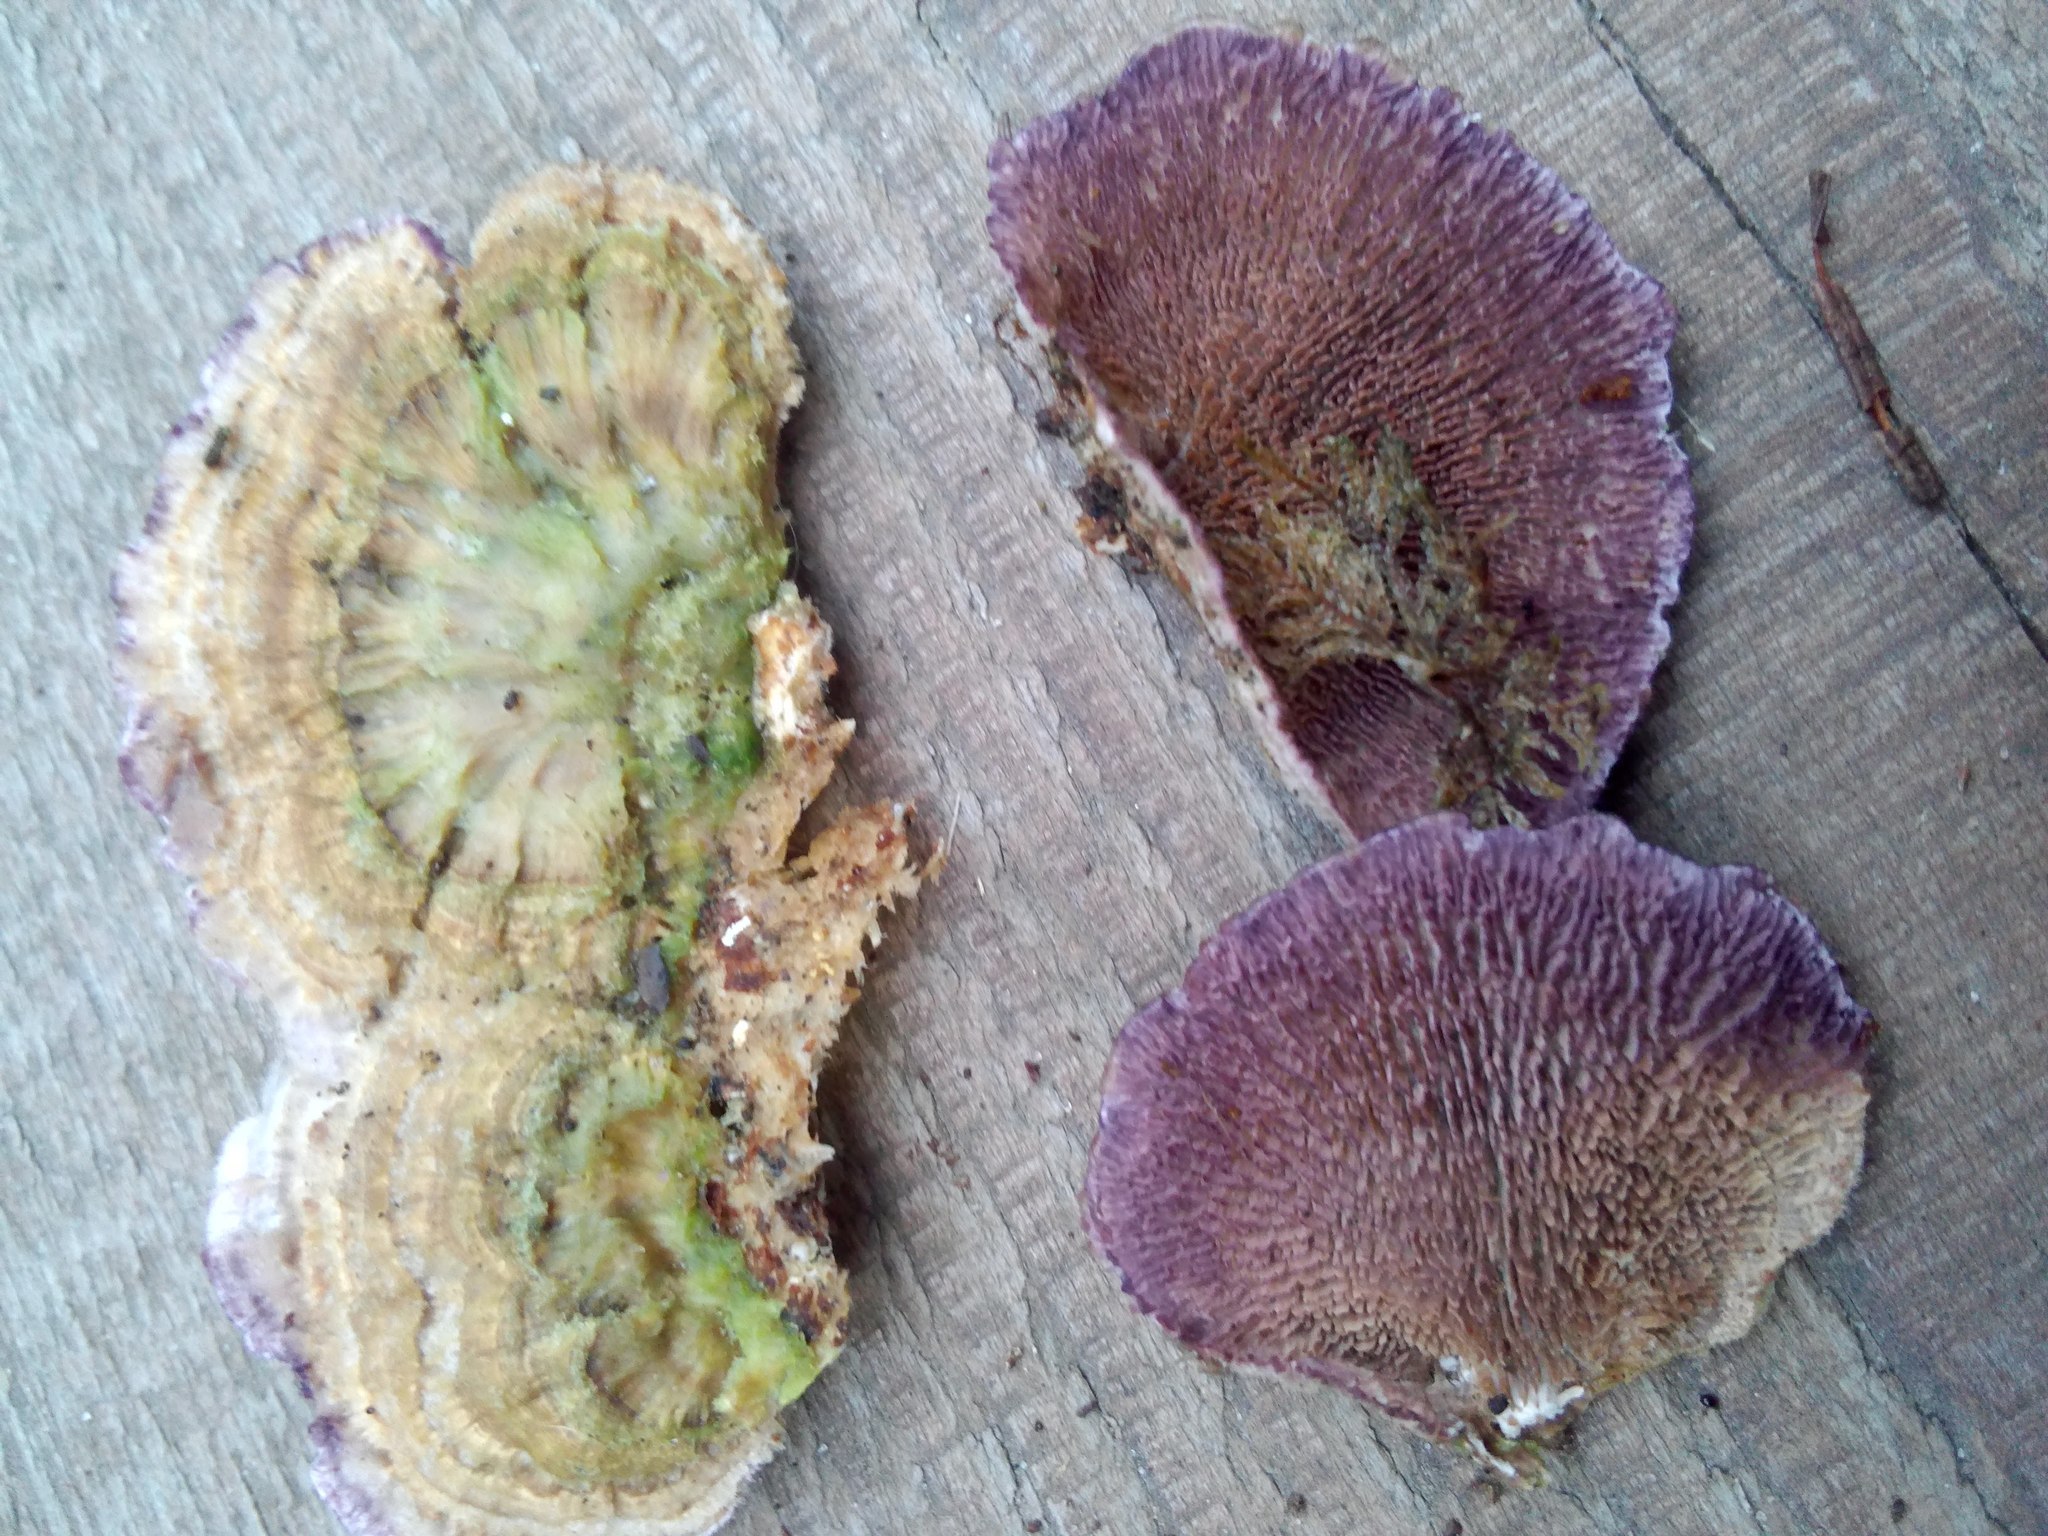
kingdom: Fungi
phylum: Basidiomycota
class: Agaricomycetes
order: Hymenochaetales
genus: Trichaptum
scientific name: Trichaptum fuscoviolaceum
